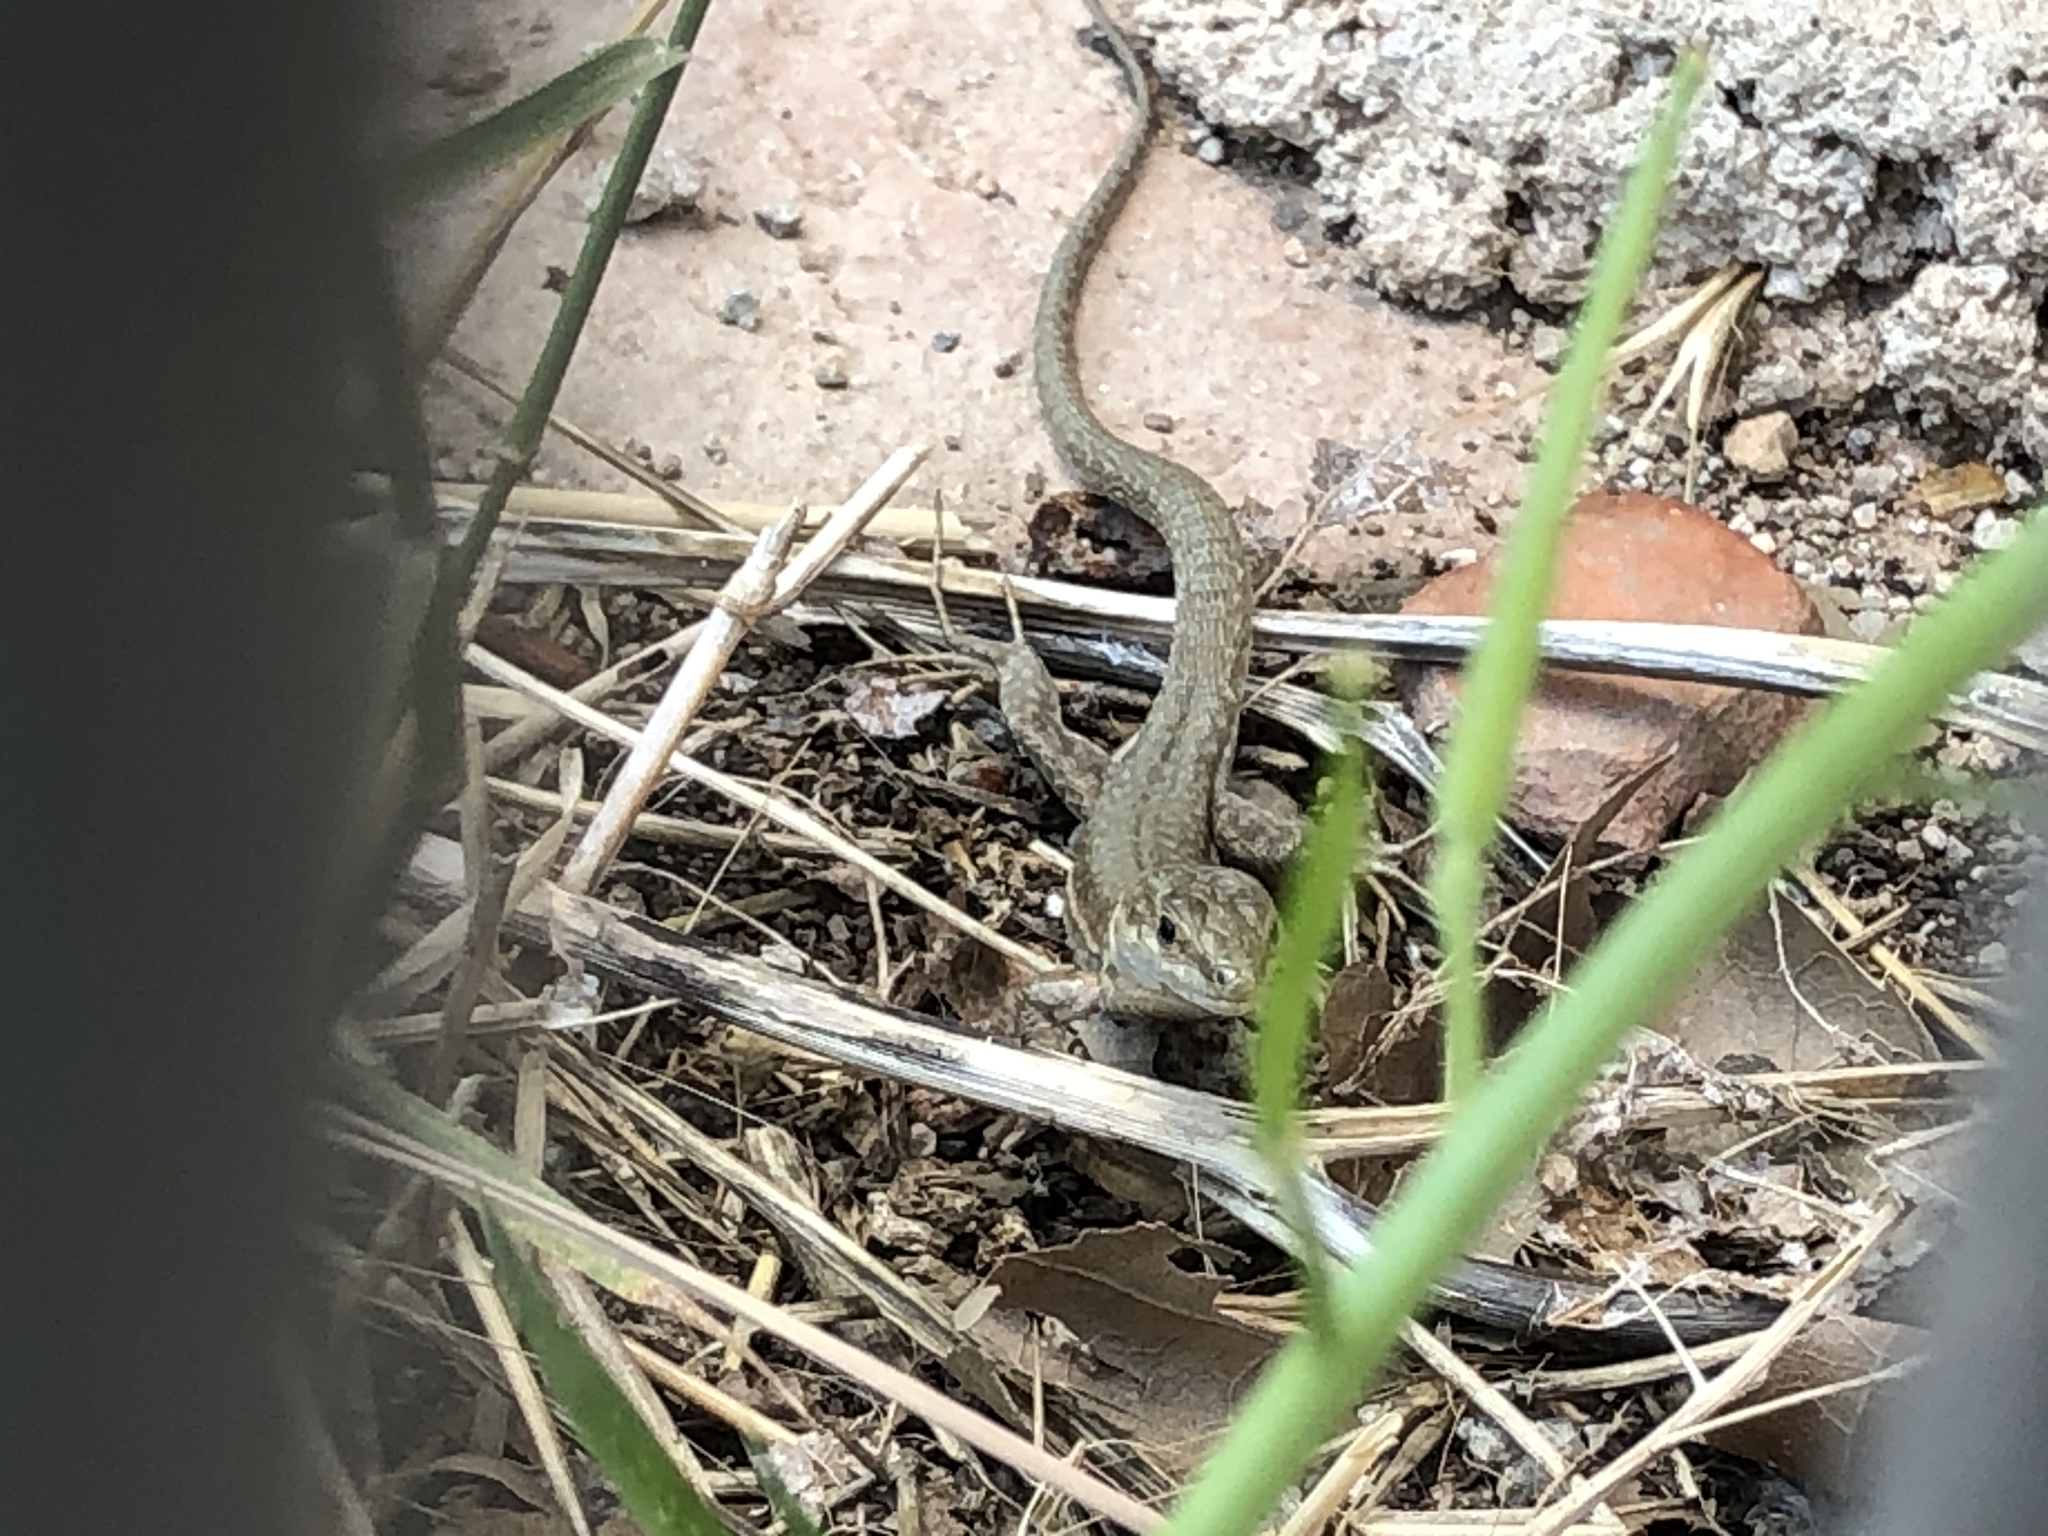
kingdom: Animalia
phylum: Chordata
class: Squamata
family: Lacertidae
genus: Podarcis
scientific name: Podarcis liolepis
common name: Catalonian wall lizard
